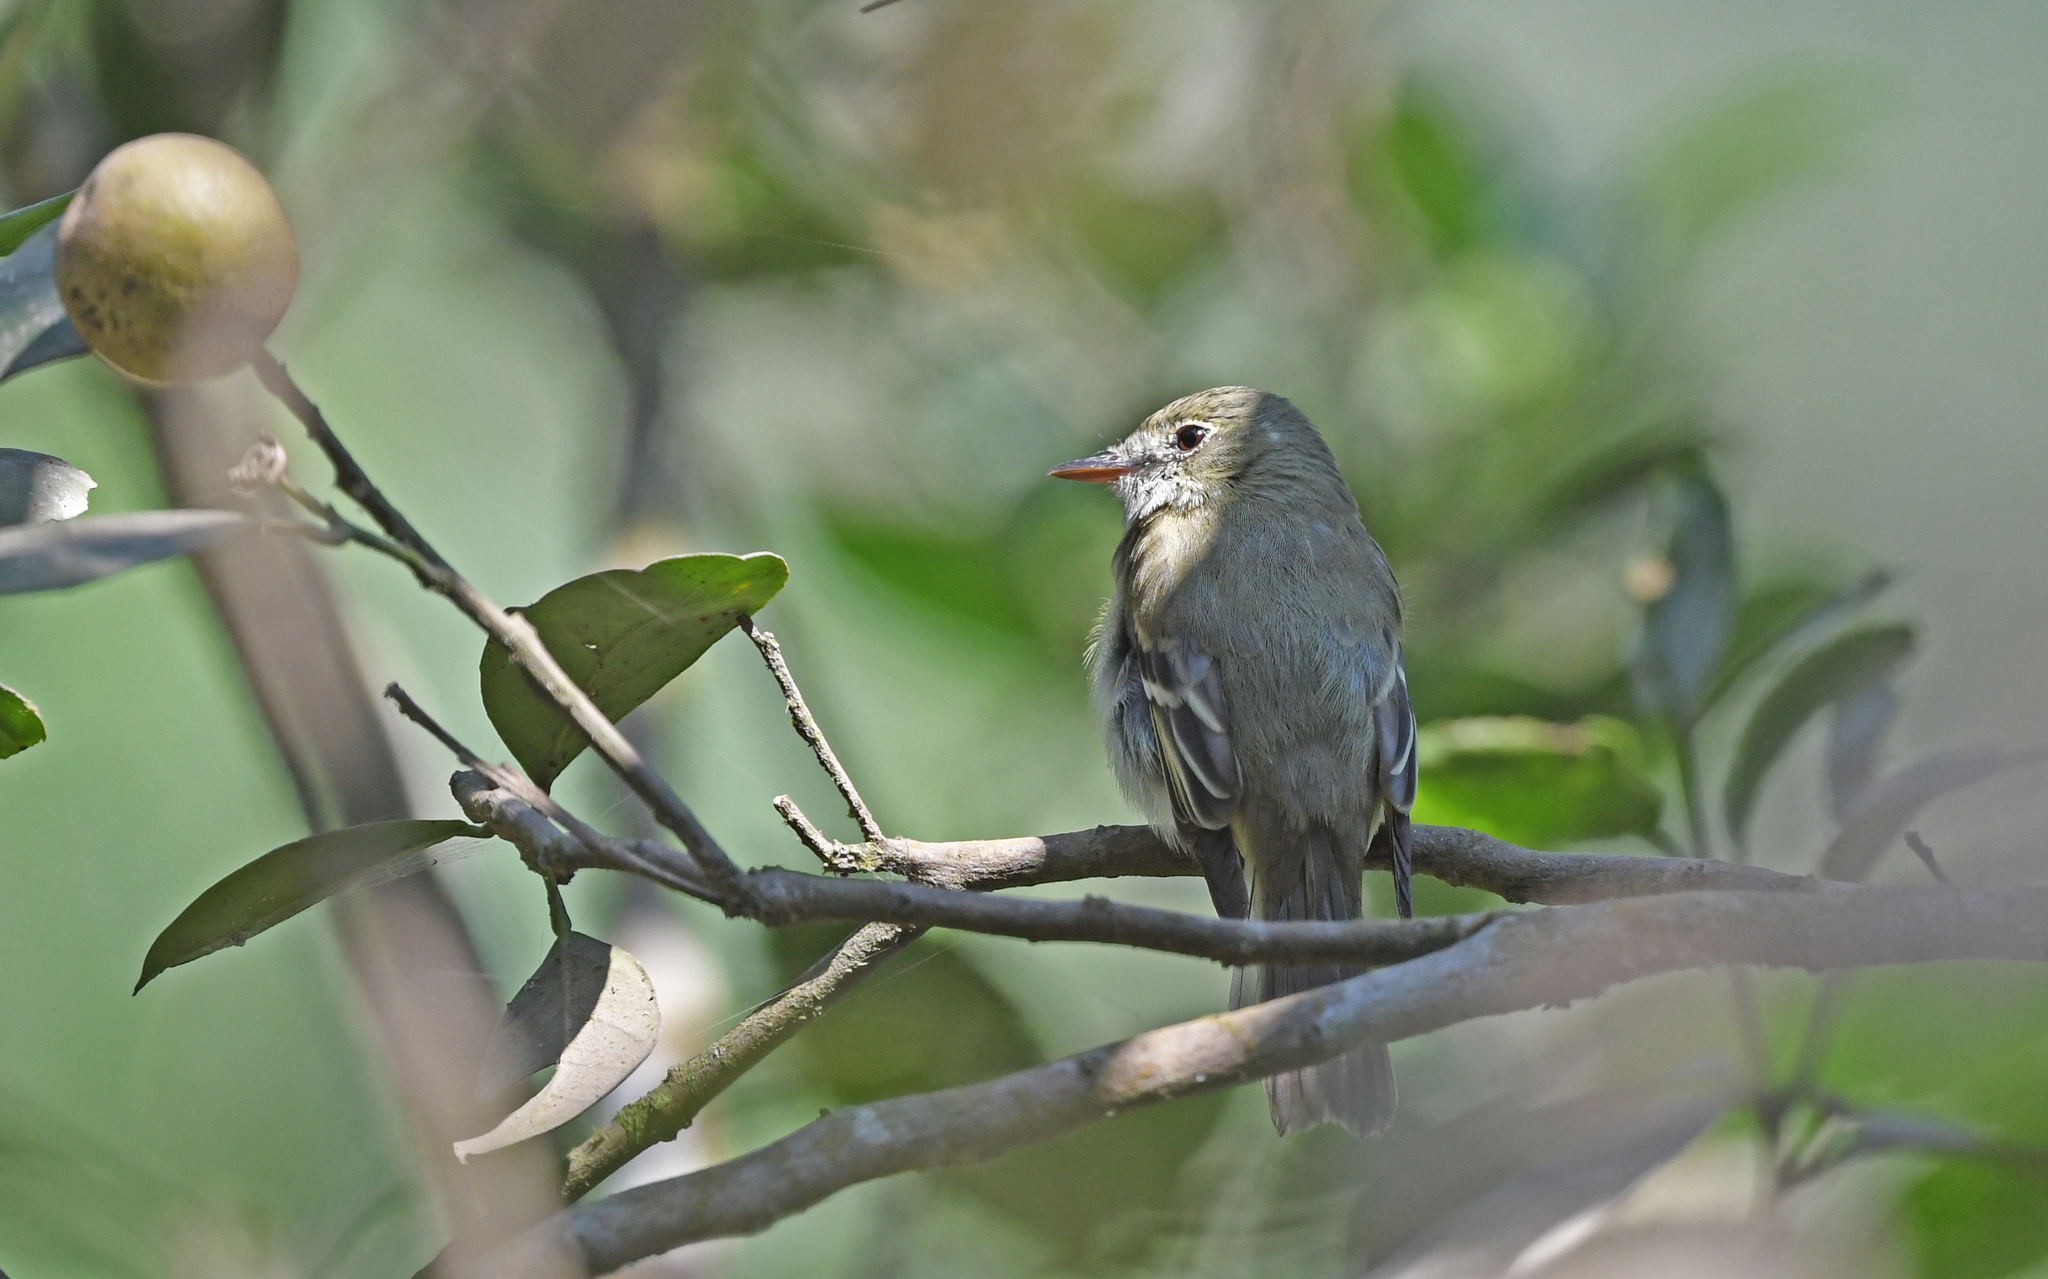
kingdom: Animalia
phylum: Chordata
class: Aves
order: Passeriformes
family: Tyrannidae
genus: Empidonax
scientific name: Empidonax virescens
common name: Acadian flycatcher
